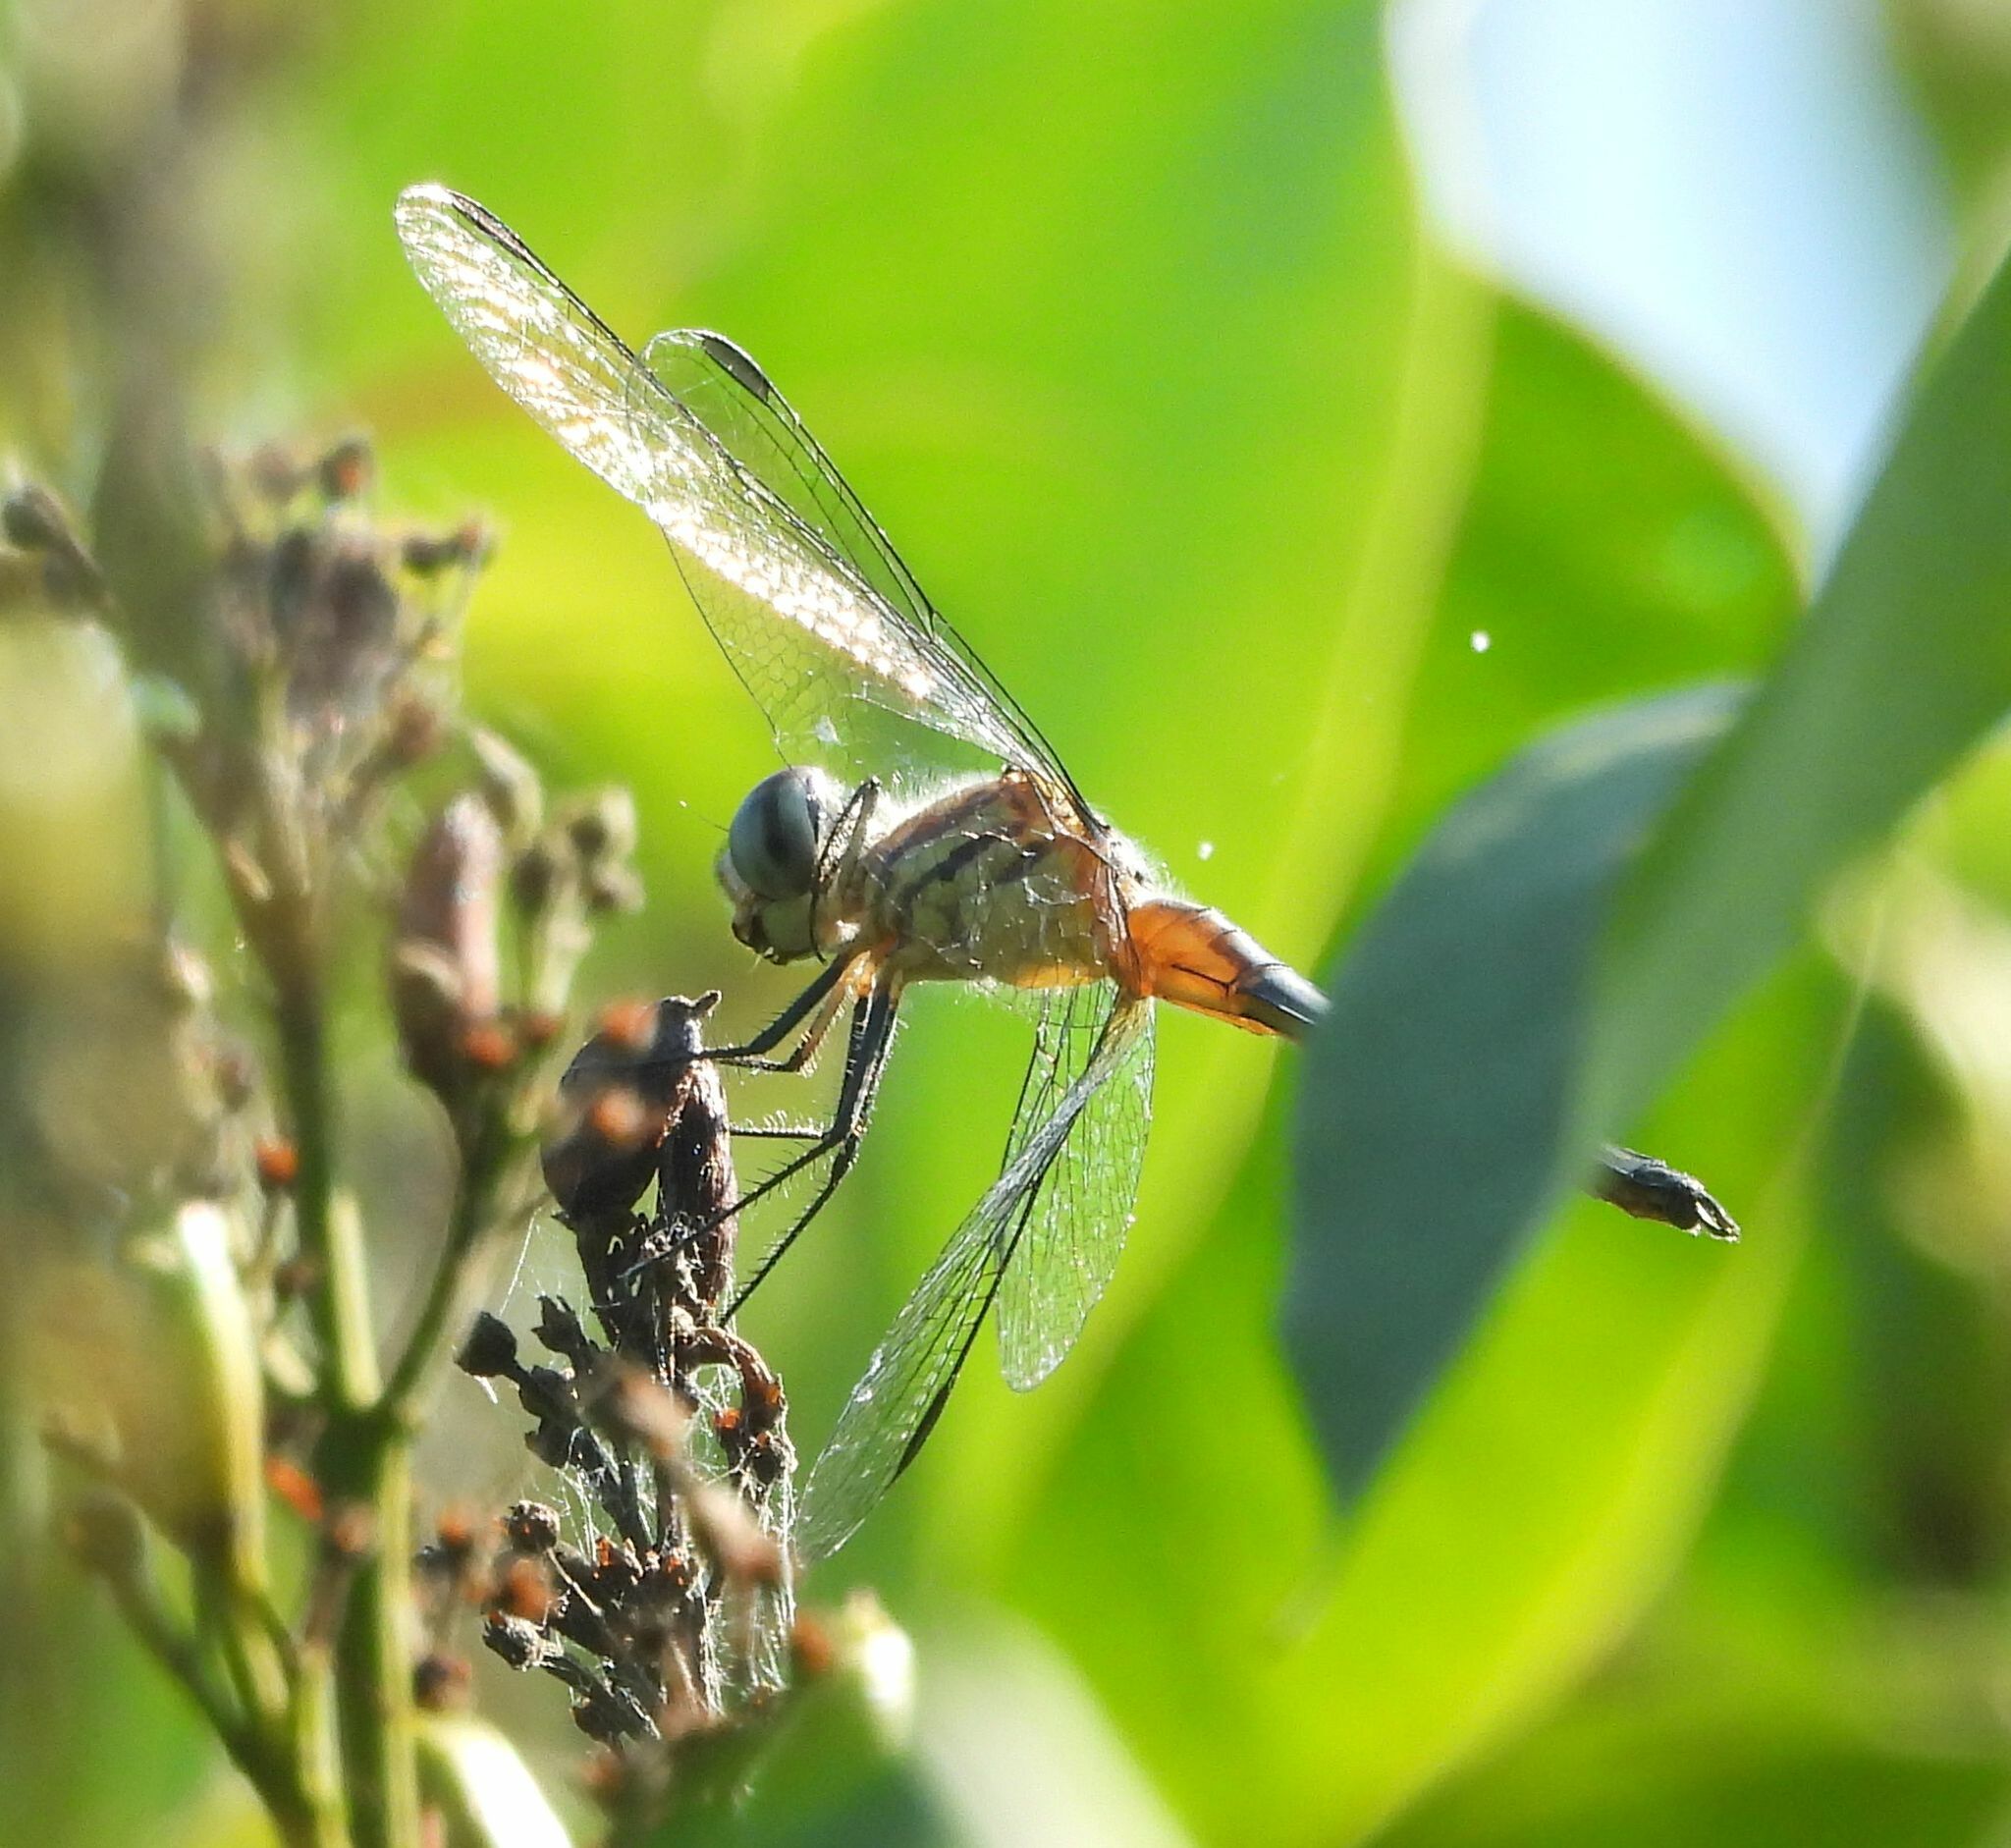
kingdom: Animalia
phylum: Arthropoda
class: Insecta
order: Odonata
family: Libellulidae
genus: Pachydiplax
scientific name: Pachydiplax longipennis
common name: Blue dasher
